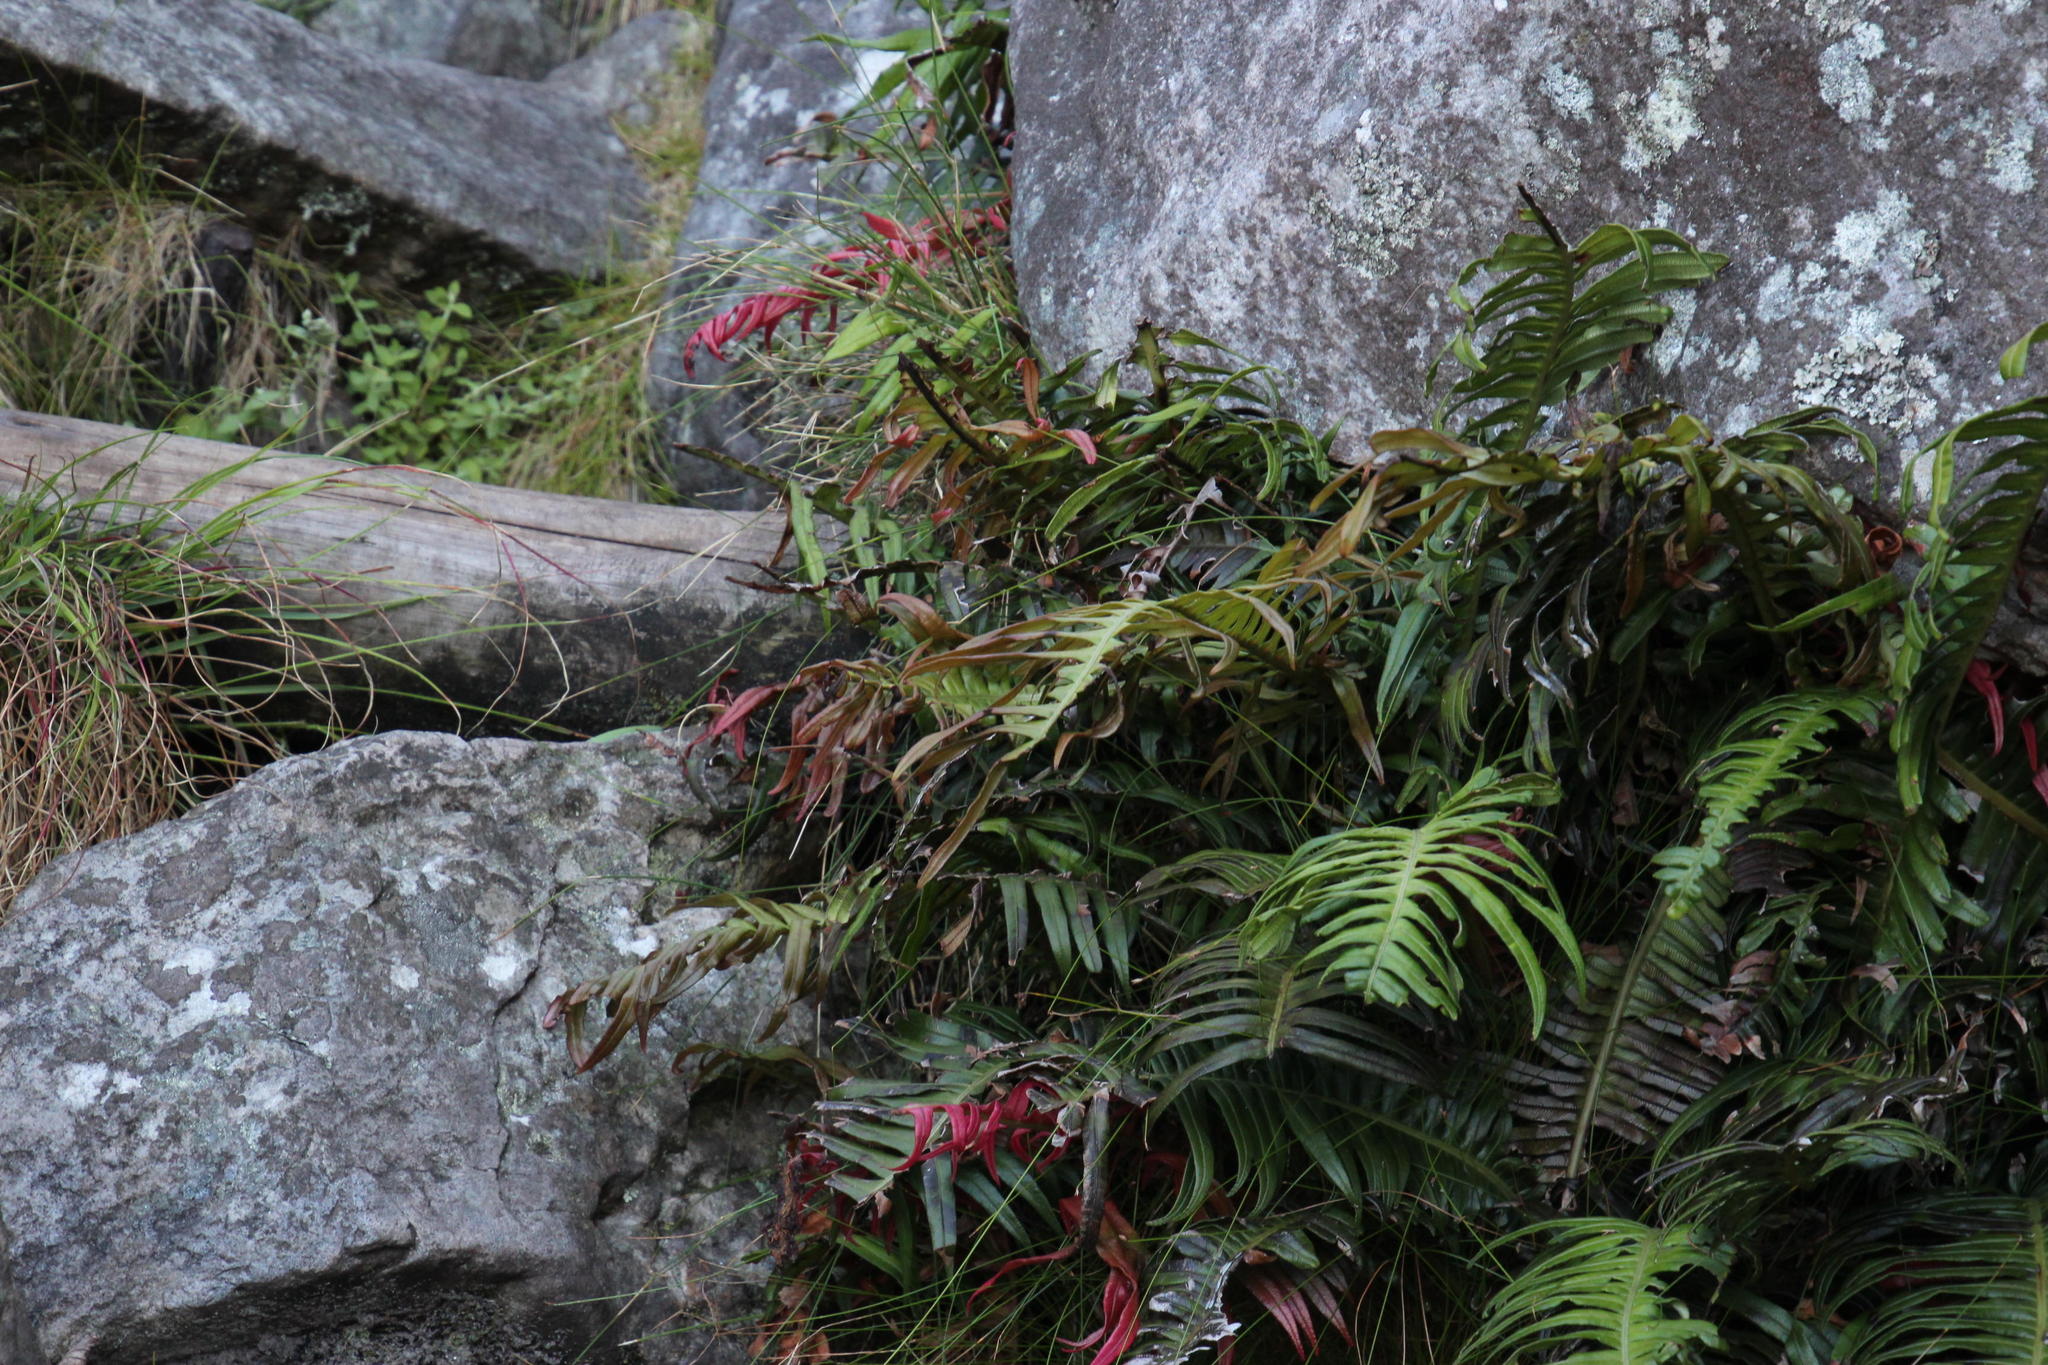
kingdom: Plantae
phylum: Tracheophyta
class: Polypodiopsida
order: Polypodiales
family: Blechnaceae
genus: Lomaridium
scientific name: Lomaridium attenuatum
